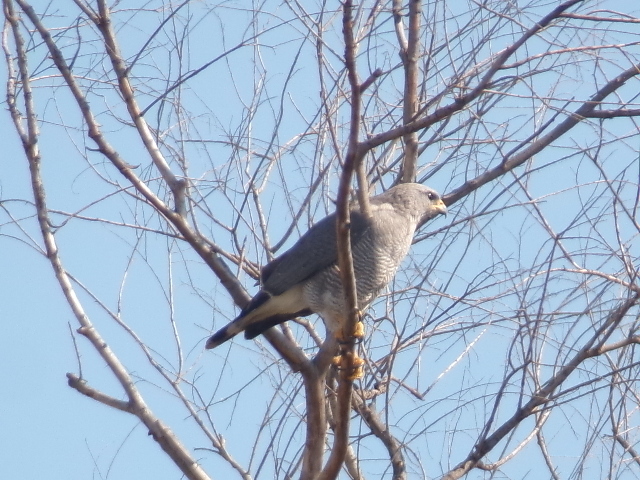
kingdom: Animalia
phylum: Chordata
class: Aves
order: Accipitriformes
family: Accipitridae
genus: Buteo
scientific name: Buteo nitidus
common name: Grey-lined hawk
